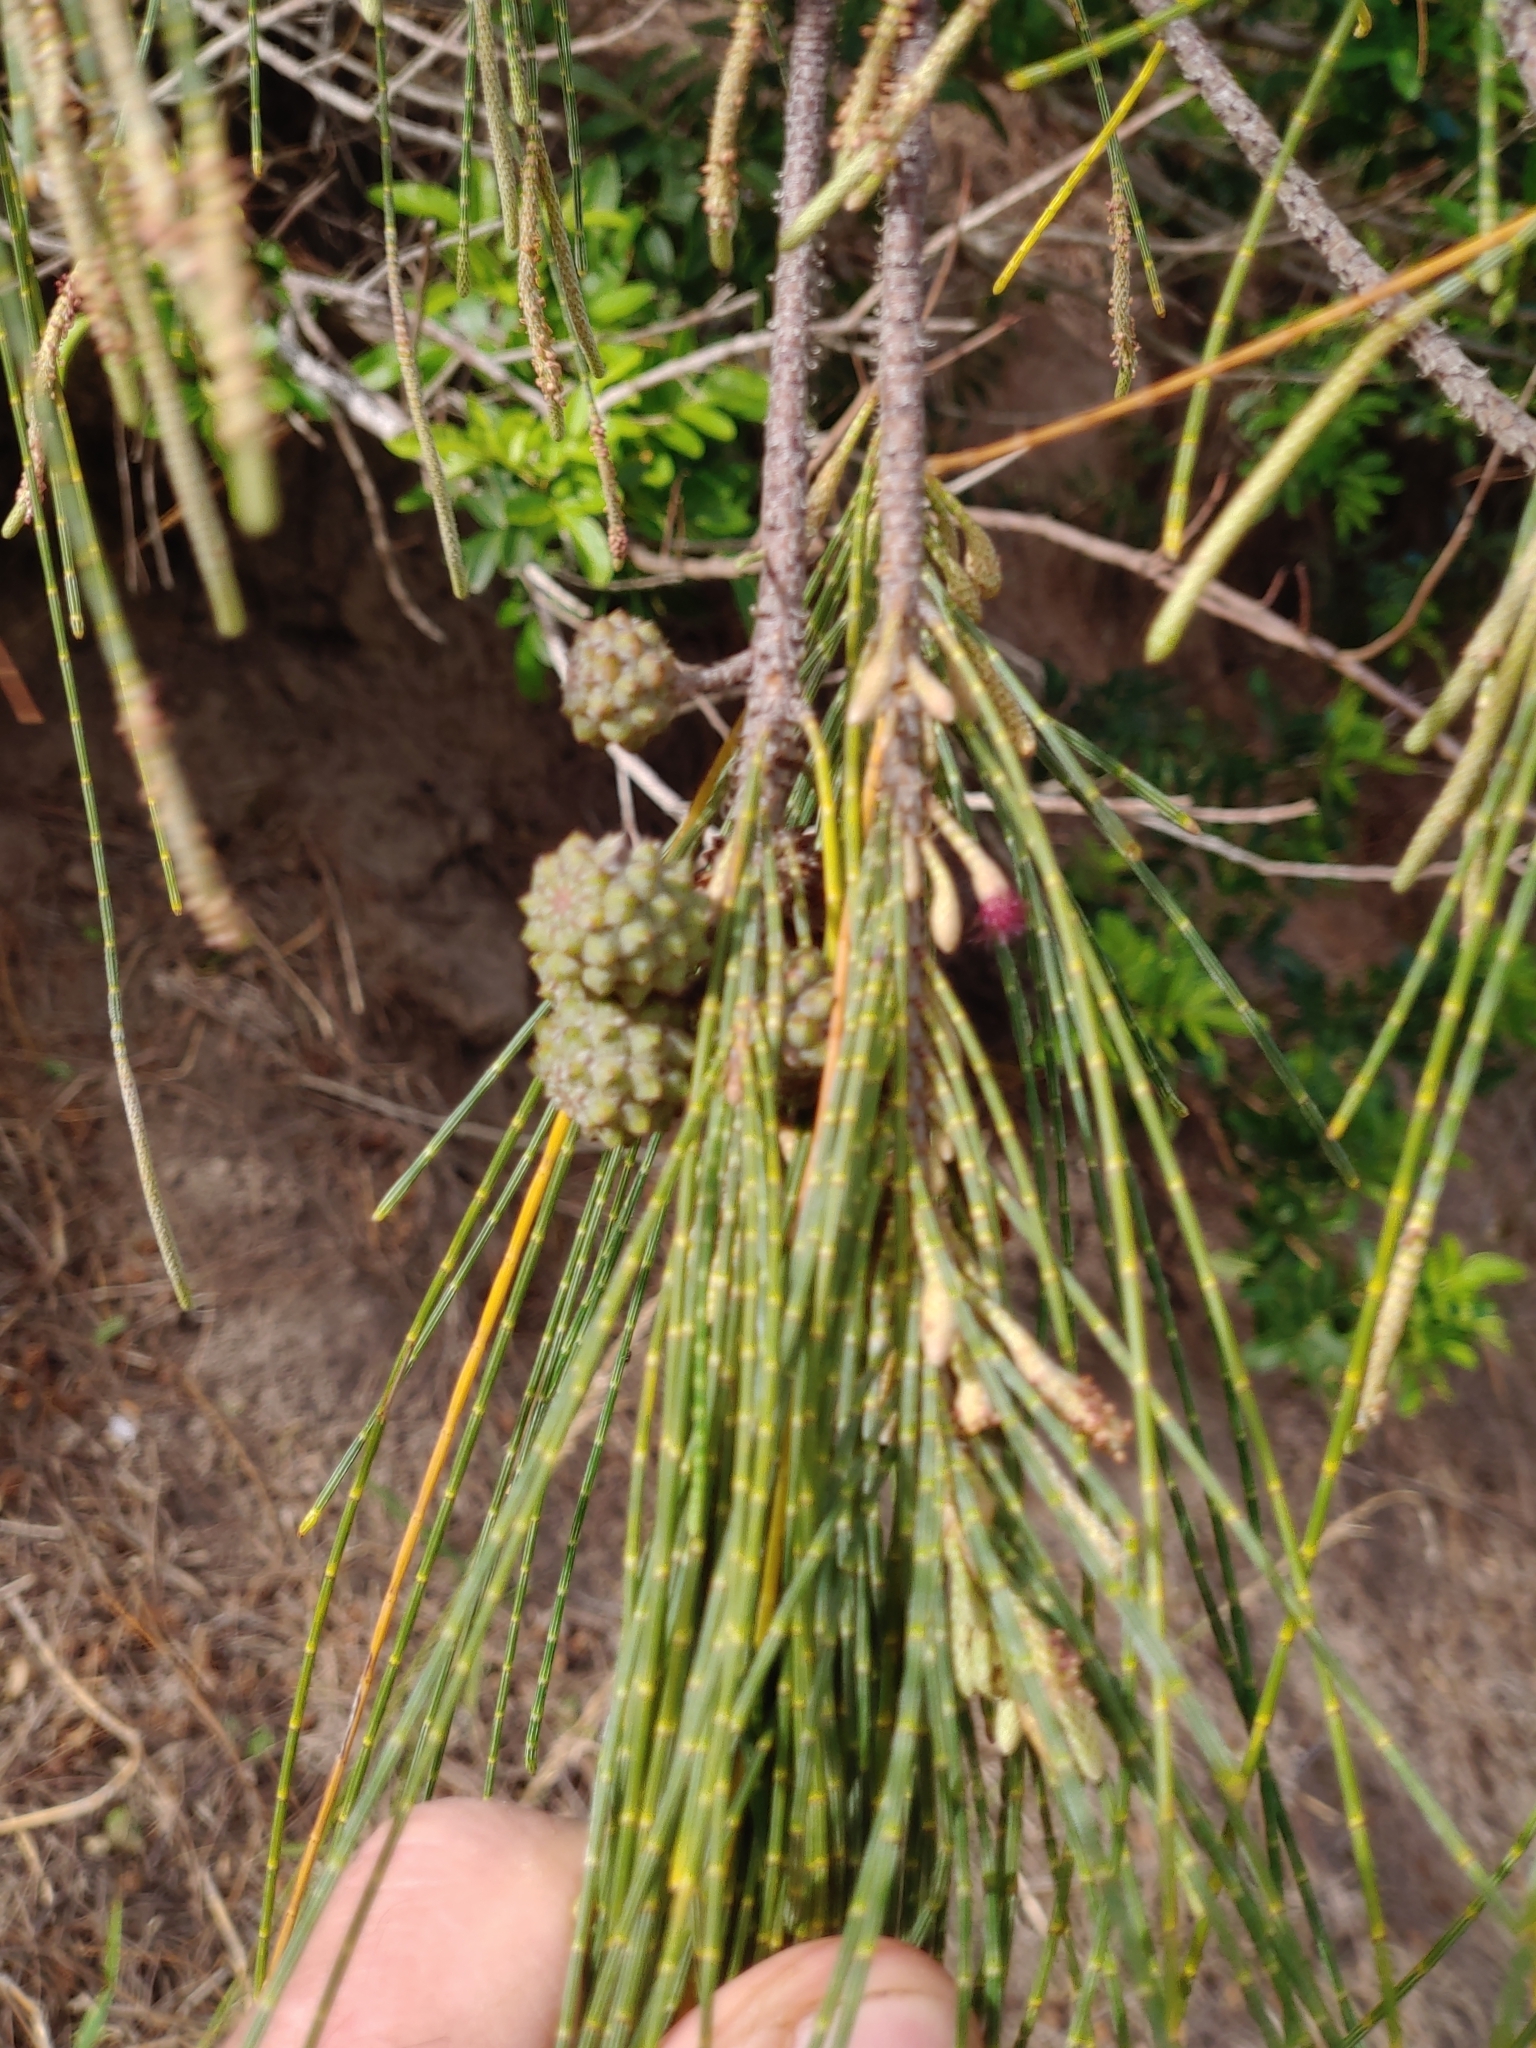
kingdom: Plantae
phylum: Tracheophyta
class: Magnoliopsida
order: Fagales
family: Casuarinaceae
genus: Casuarina
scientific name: Casuarina equisetifolia
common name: Beach sheoak
